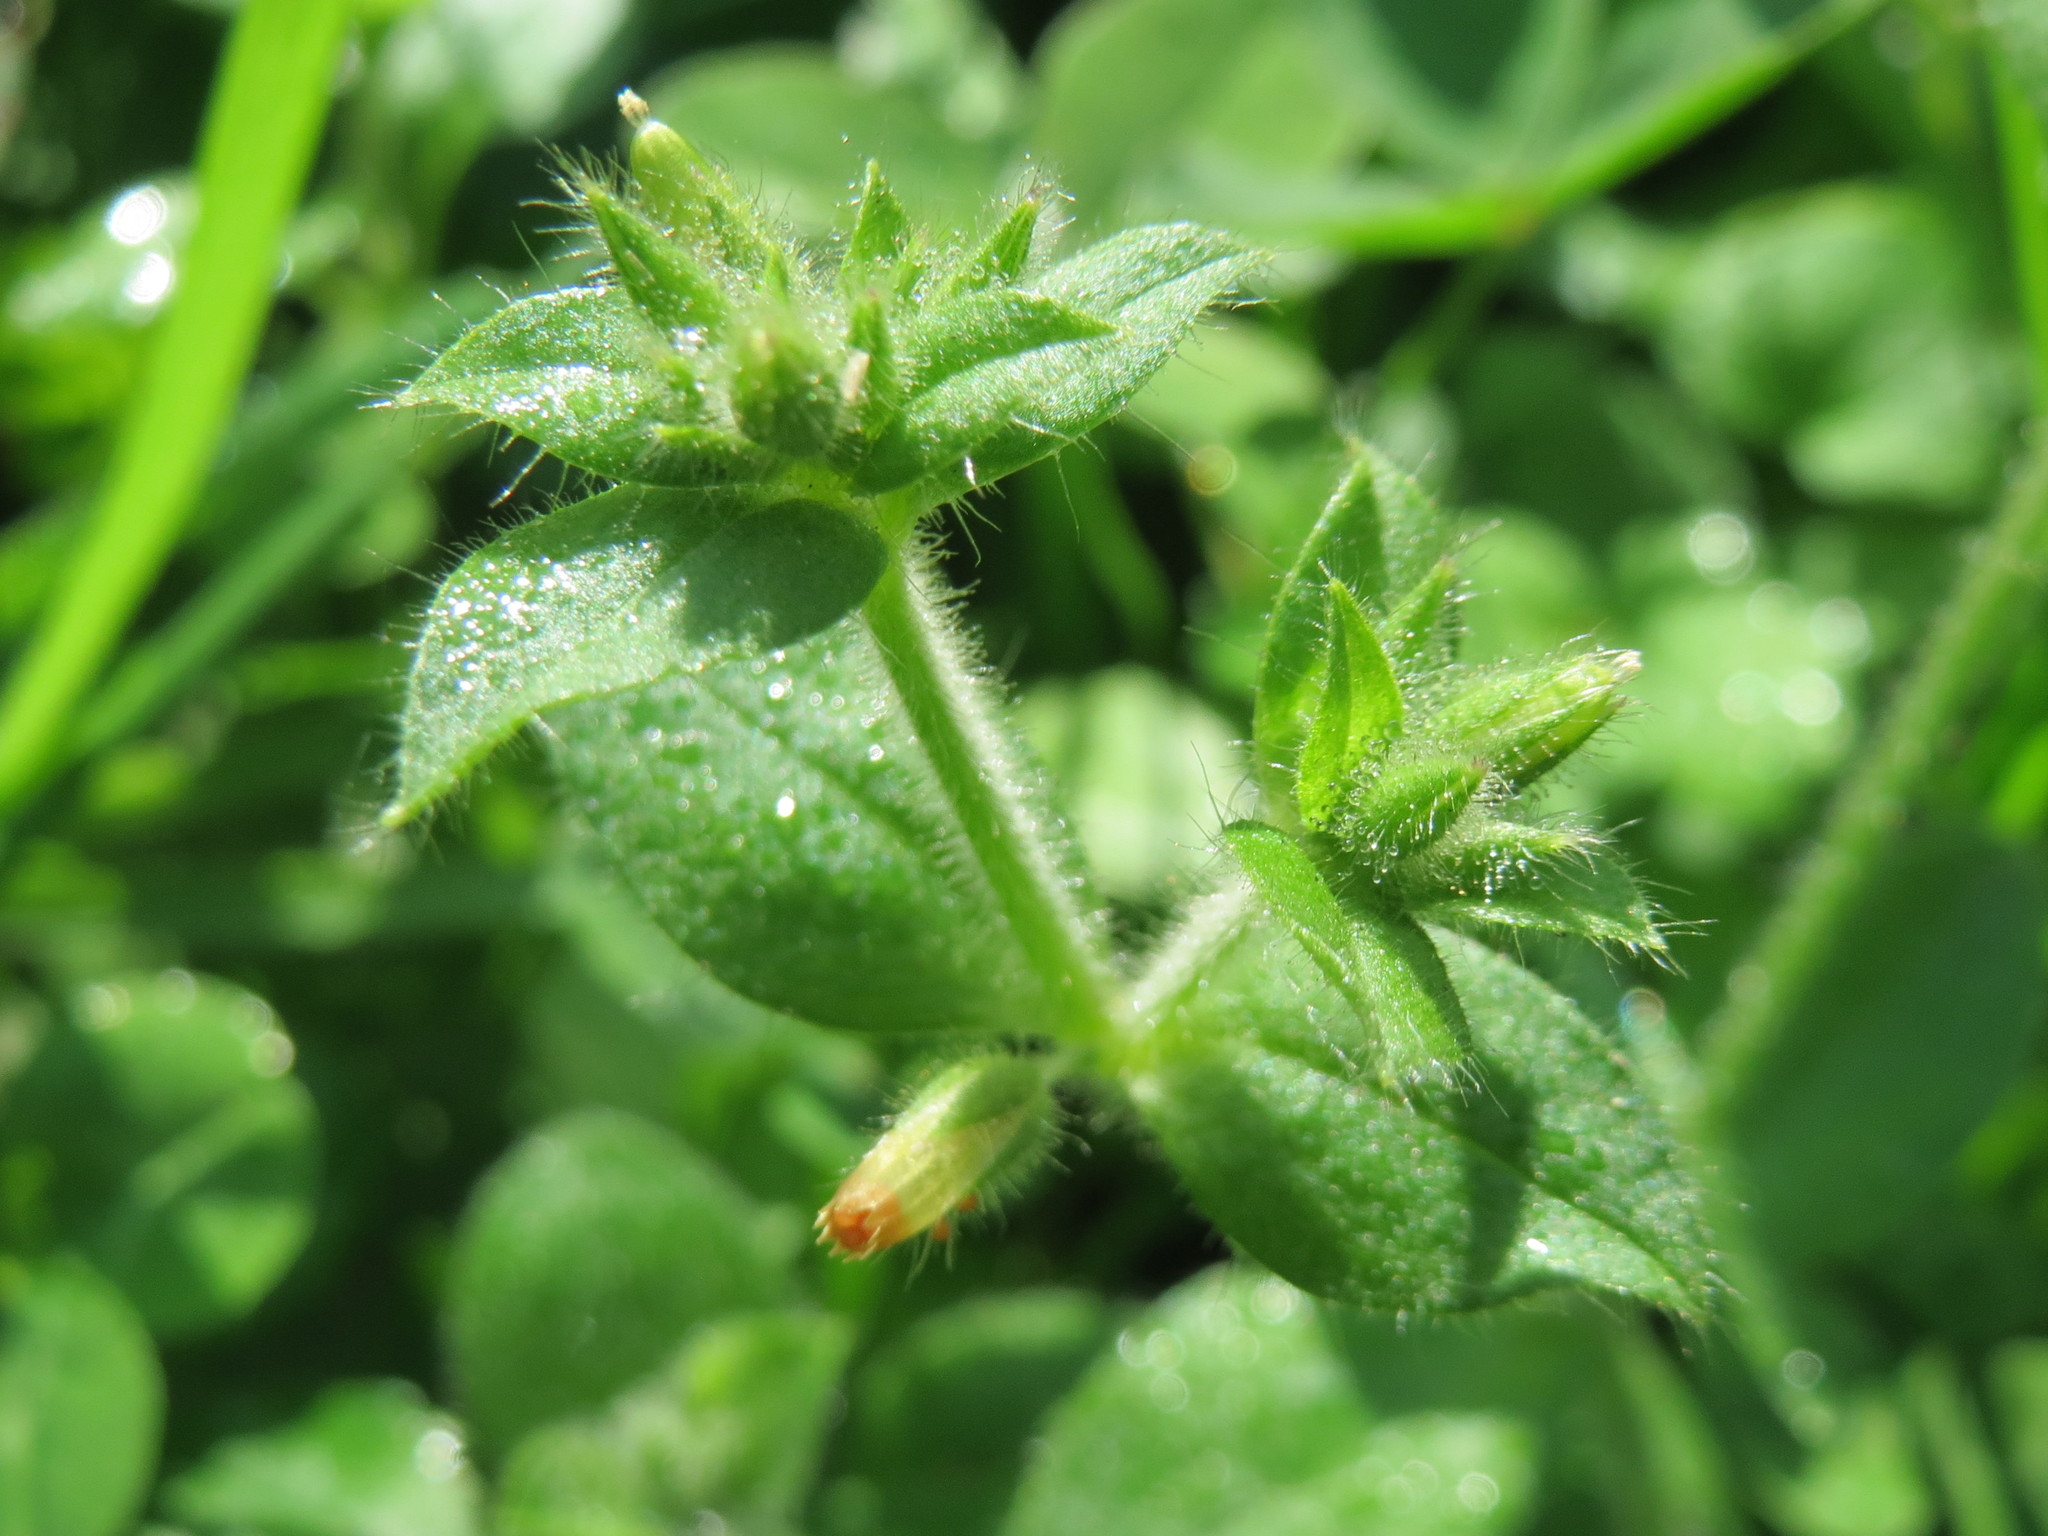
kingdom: Plantae
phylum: Tracheophyta
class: Magnoliopsida
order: Caryophyllales
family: Caryophyllaceae
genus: Cerastium
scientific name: Cerastium glomeratum
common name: Sticky chickweed
